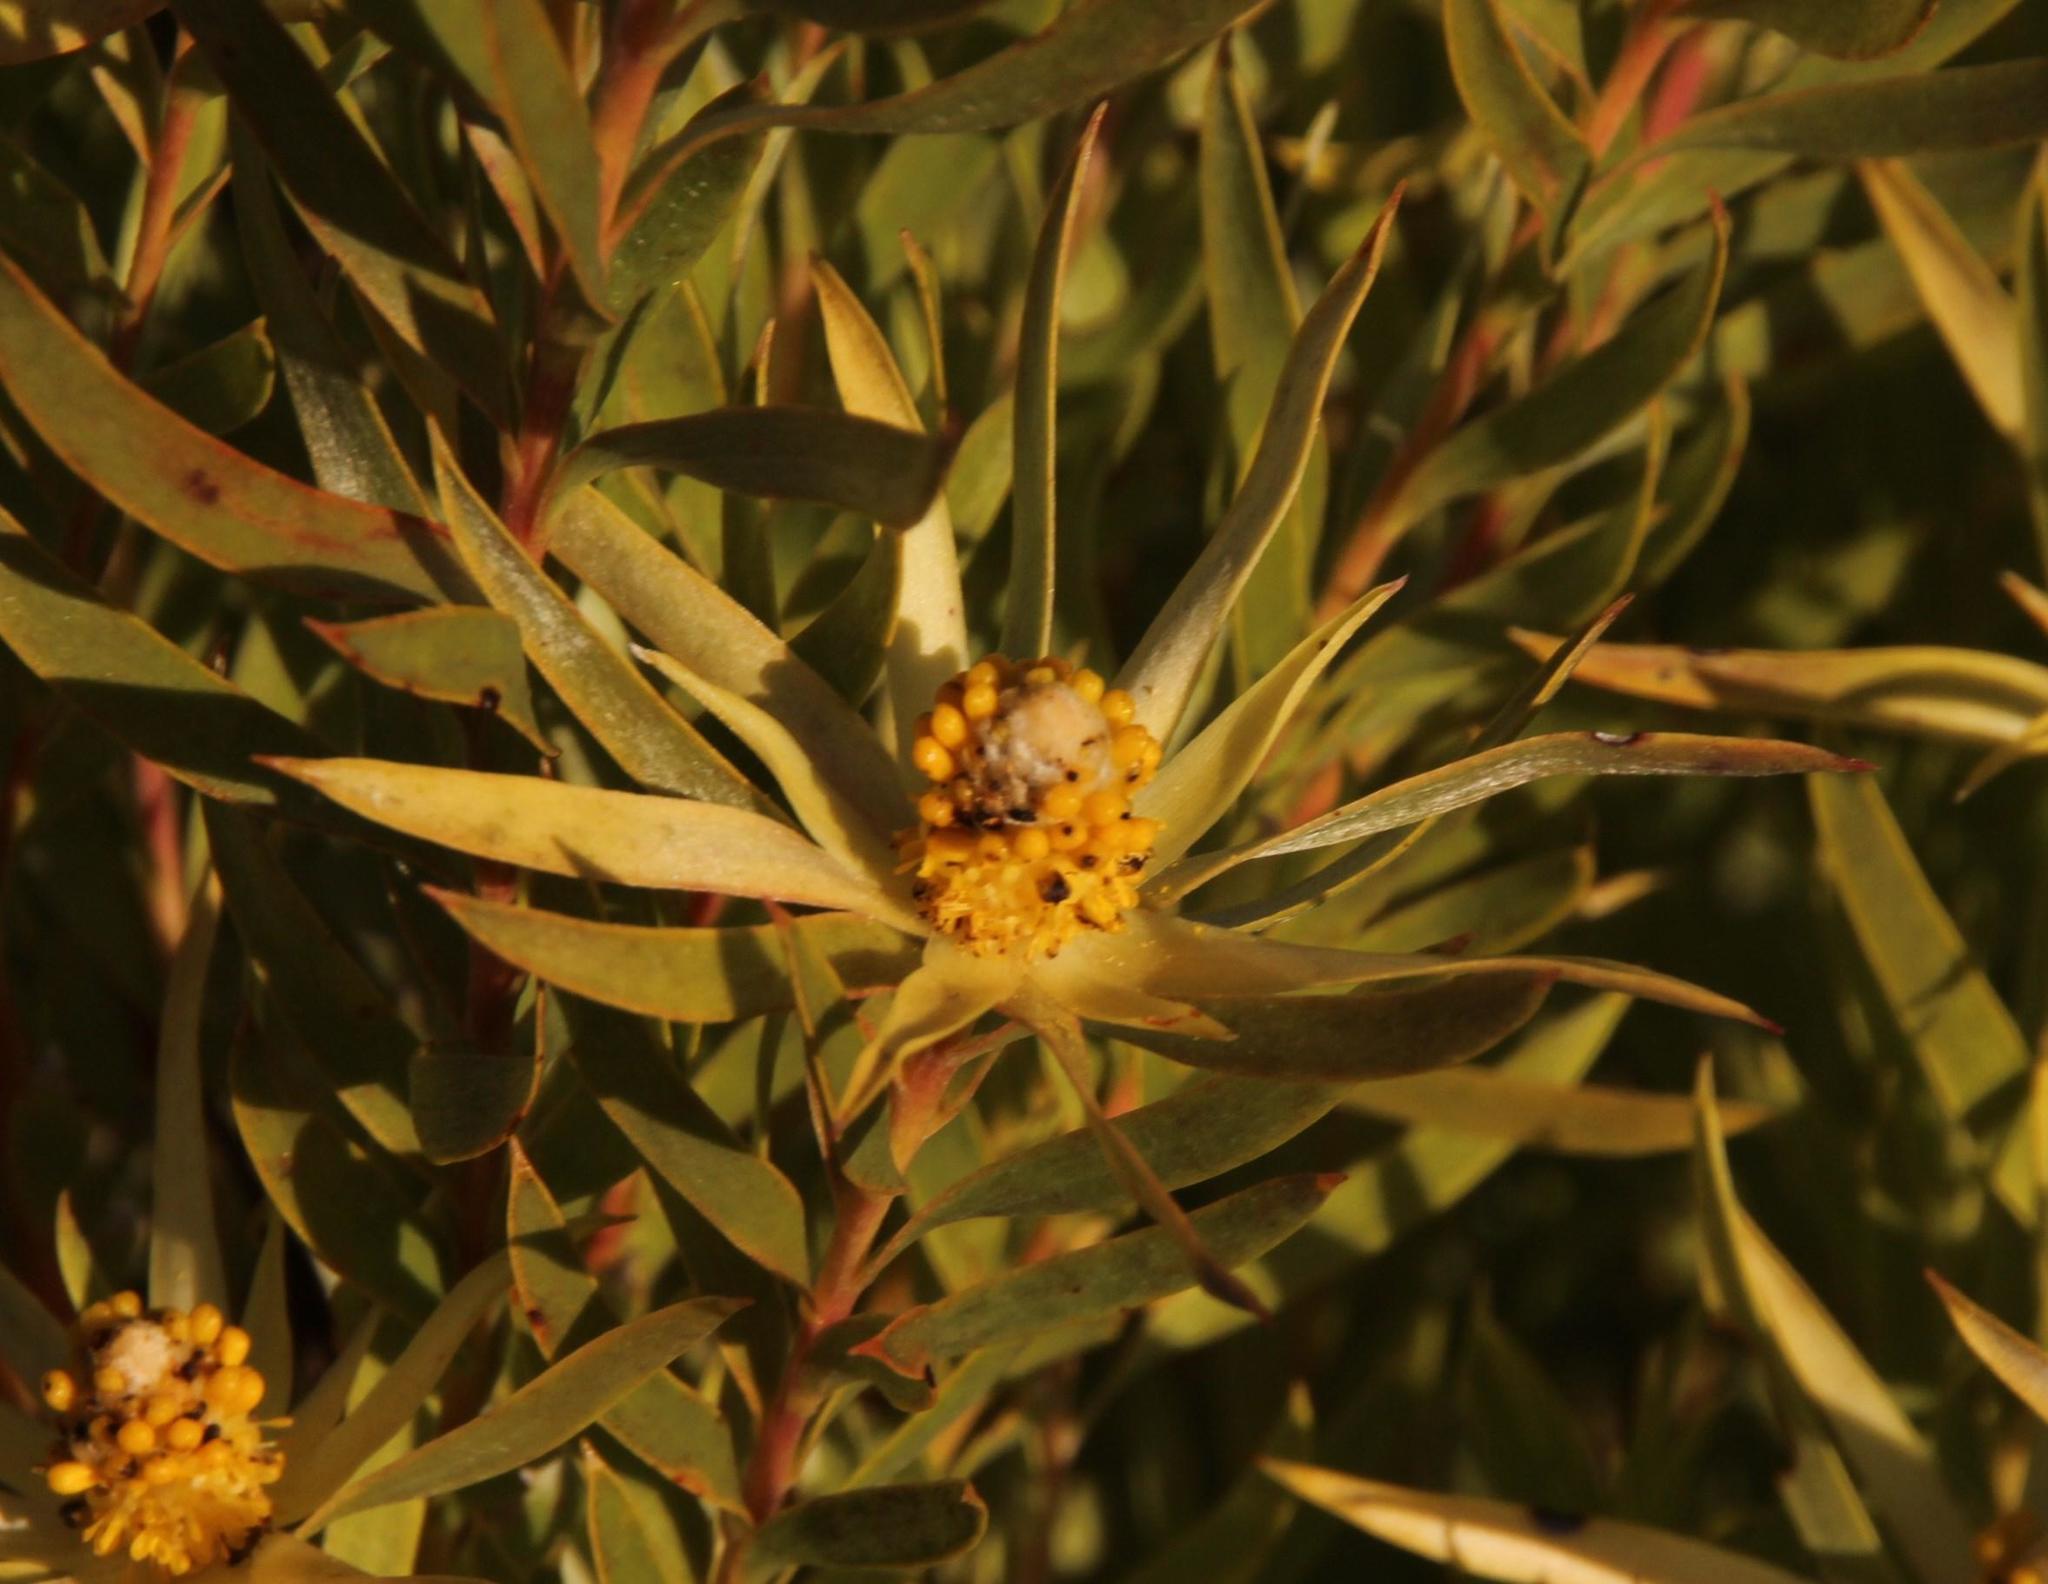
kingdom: Plantae
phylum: Tracheophyta
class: Magnoliopsida
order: Proteales
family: Proteaceae
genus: Leucadendron
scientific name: Leucadendron xanthoconus
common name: Sickle-leaf conebush
